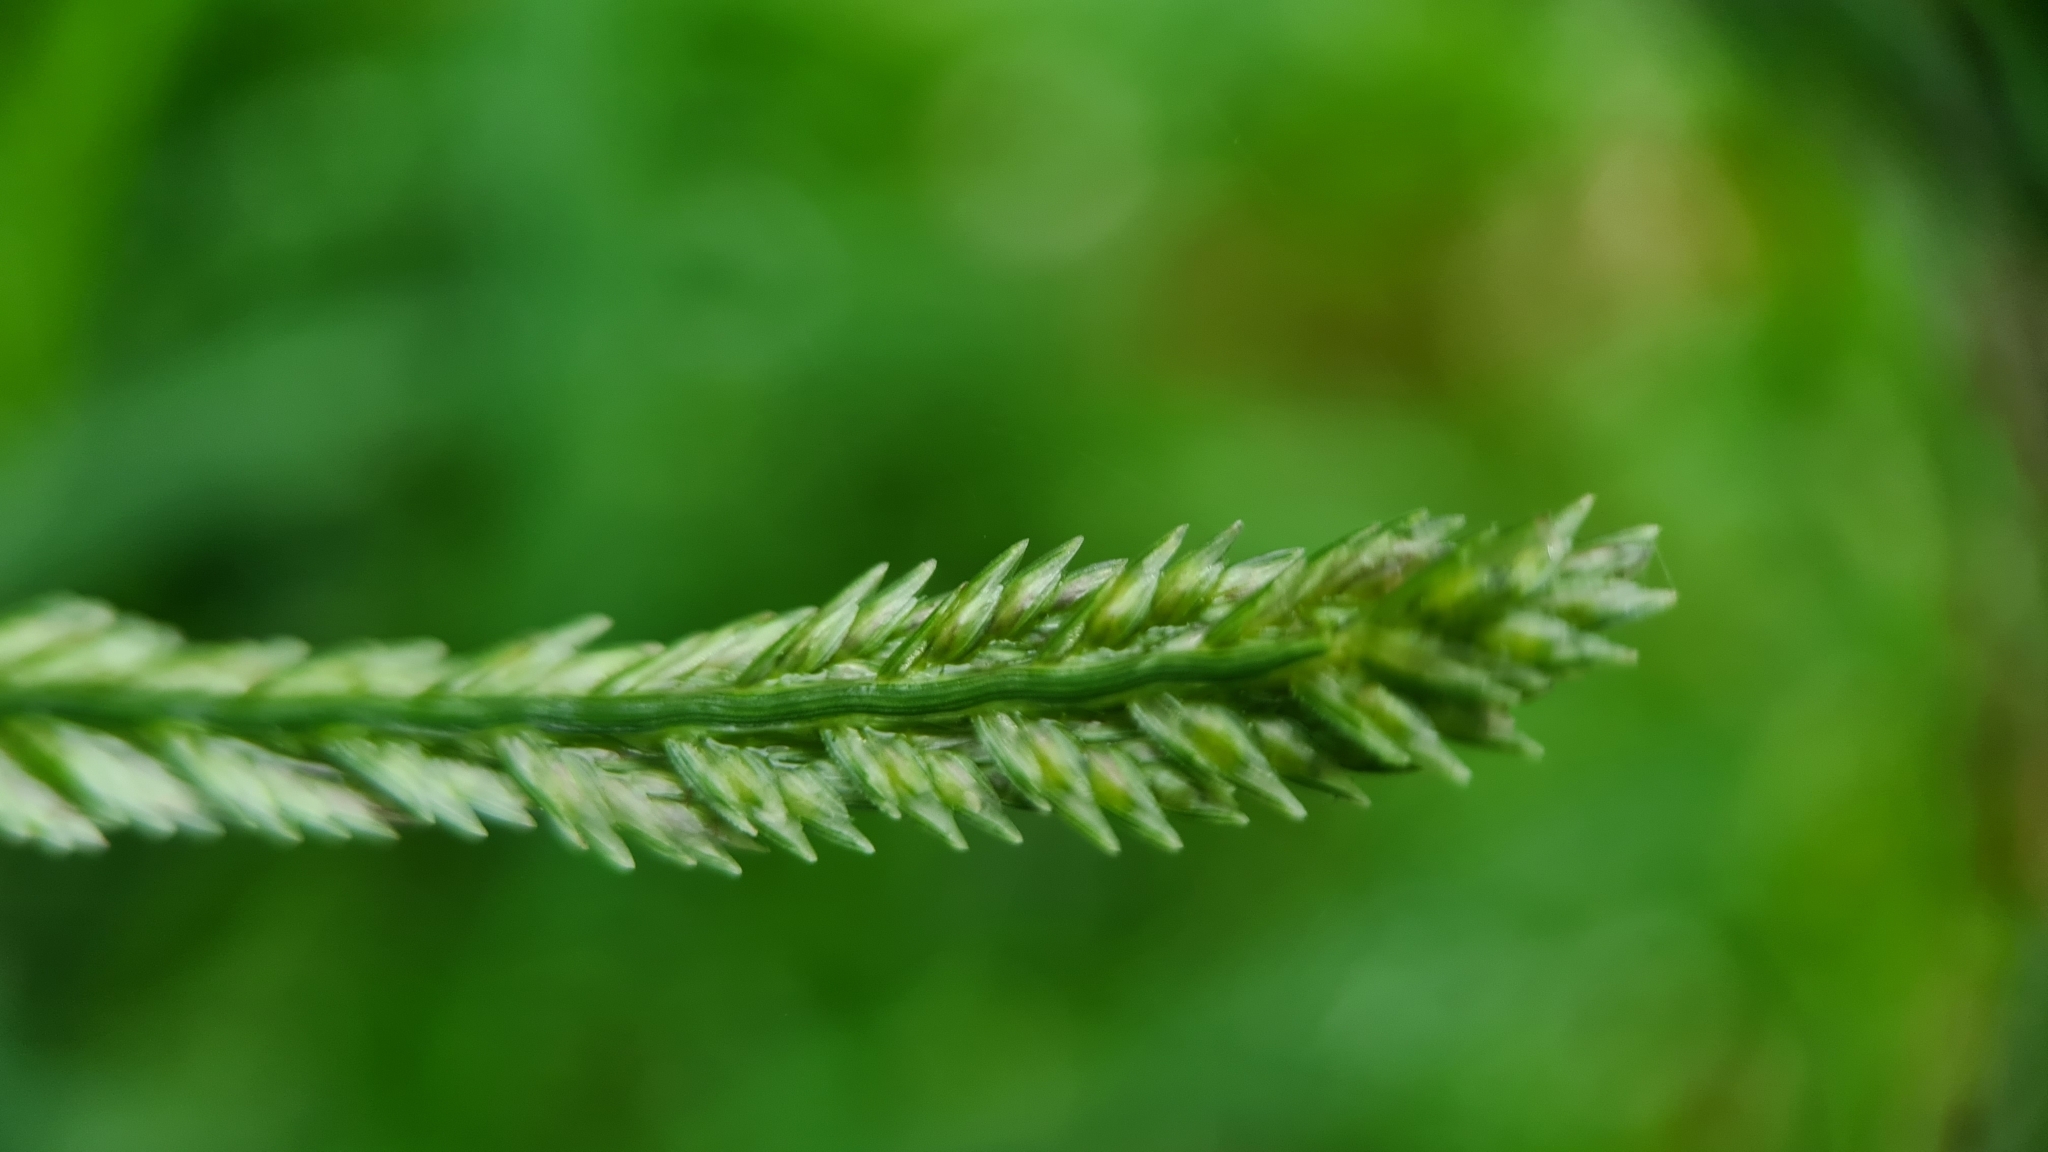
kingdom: Plantae
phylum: Tracheophyta
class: Liliopsida
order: Poales
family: Poaceae
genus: Eleusine
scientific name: Eleusine indica
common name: Yard-grass
